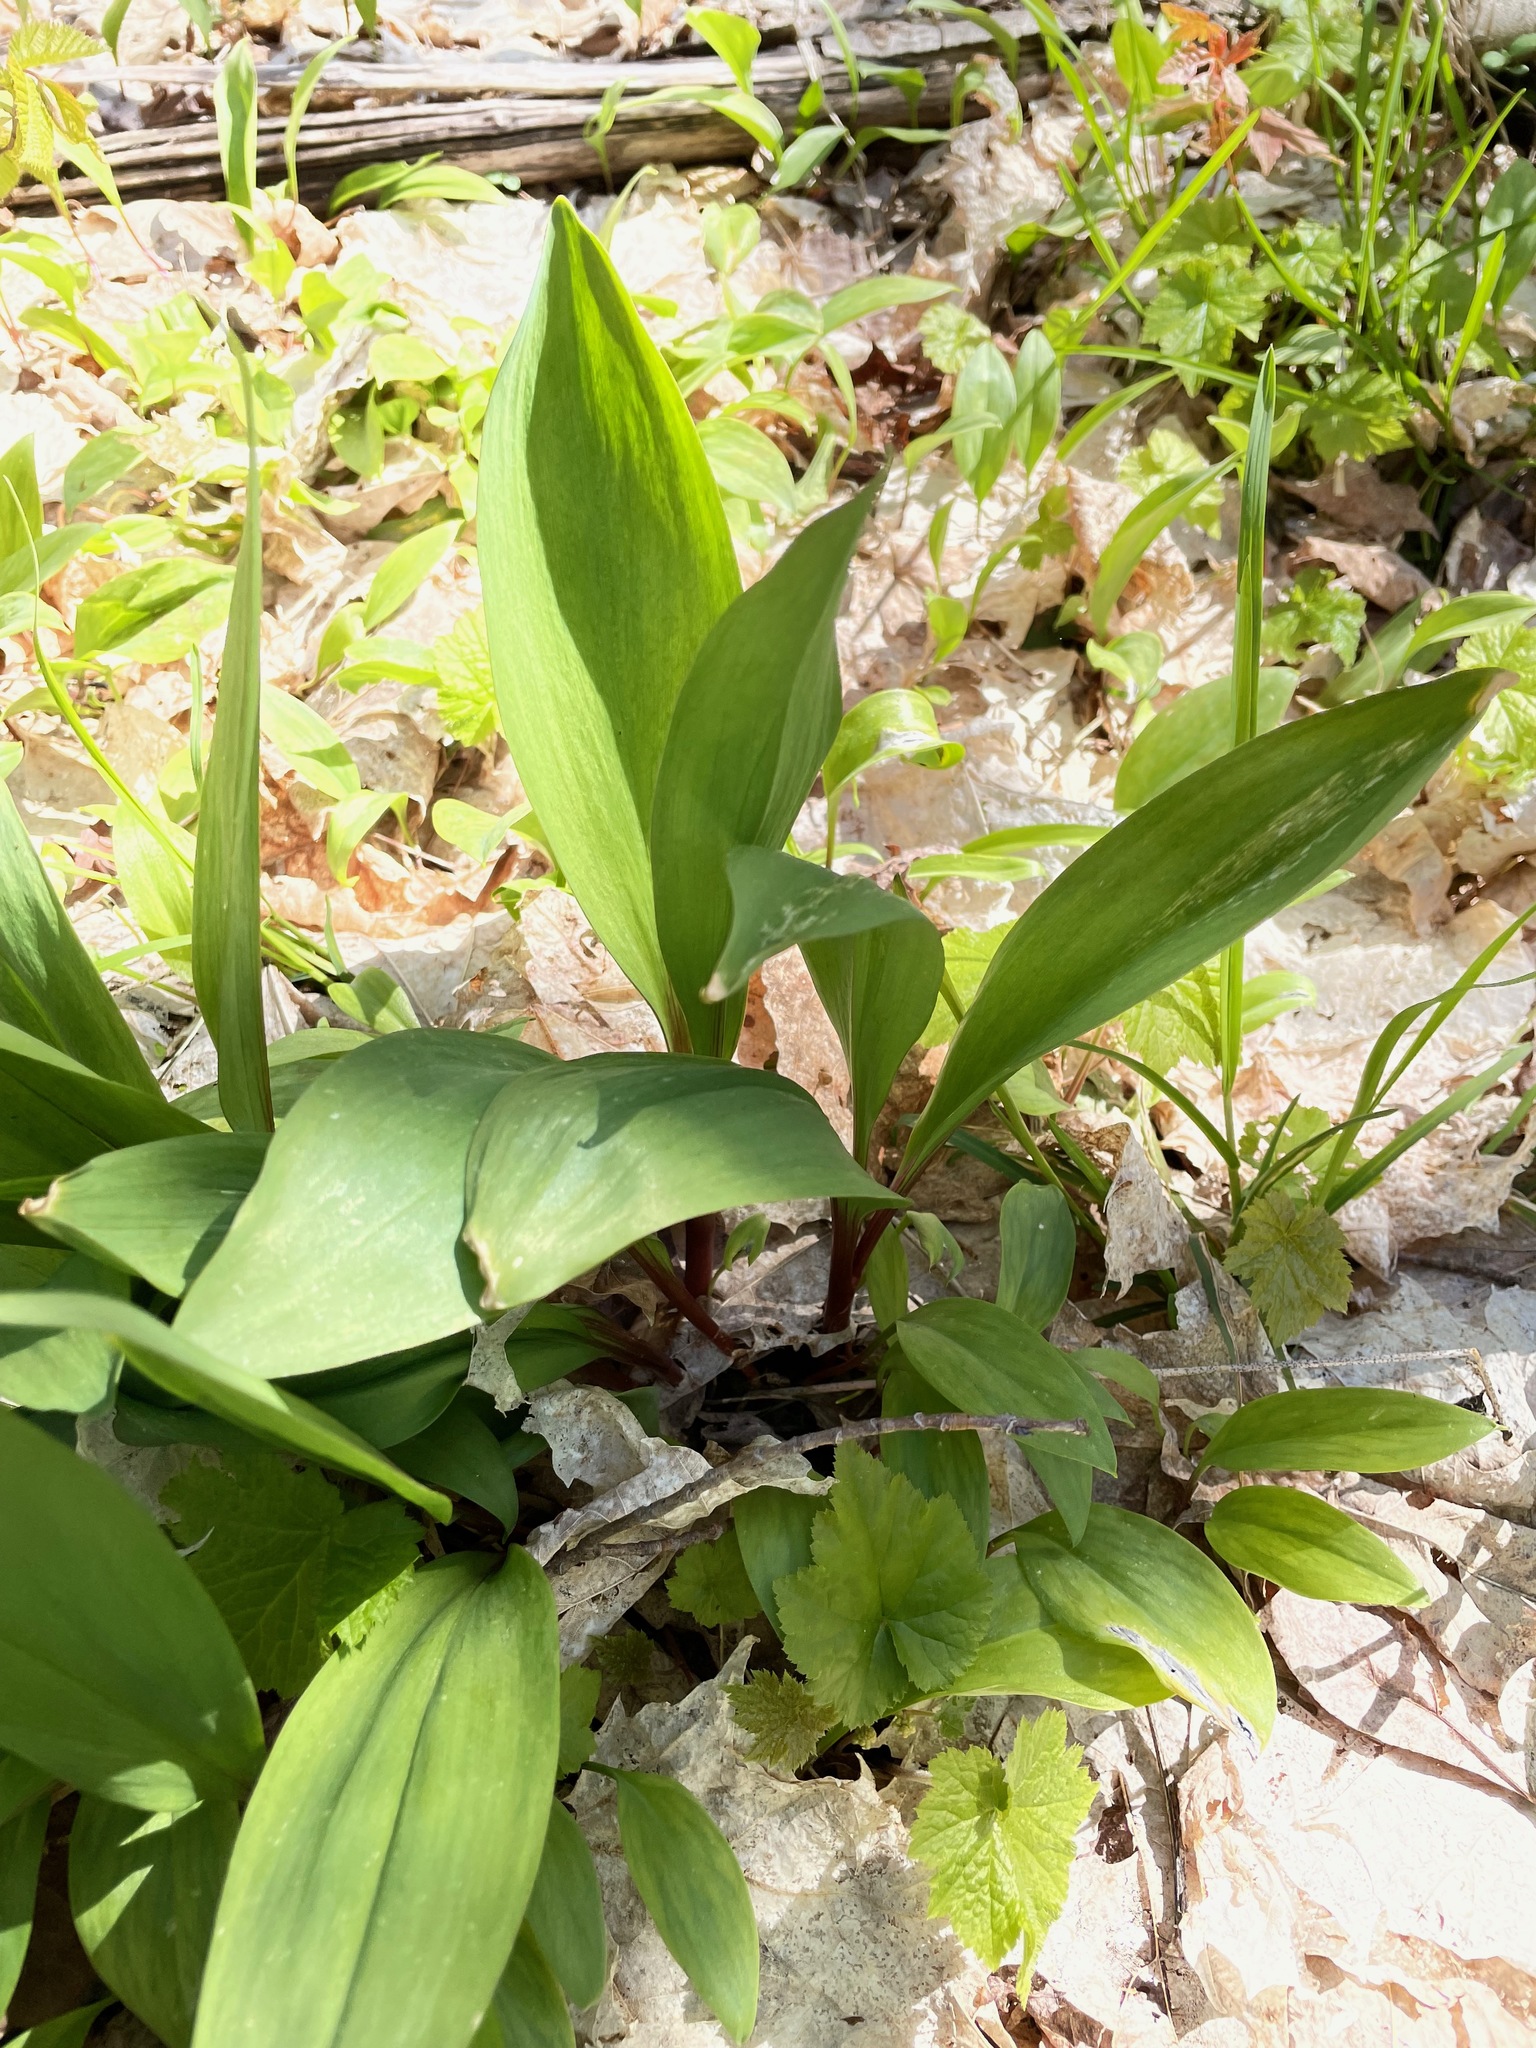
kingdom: Plantae
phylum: Tracheophyta
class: Liliopsida
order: Asparagales
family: Amaryllidaceae
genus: Allium
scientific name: Allium tricoccum
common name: Ramp
